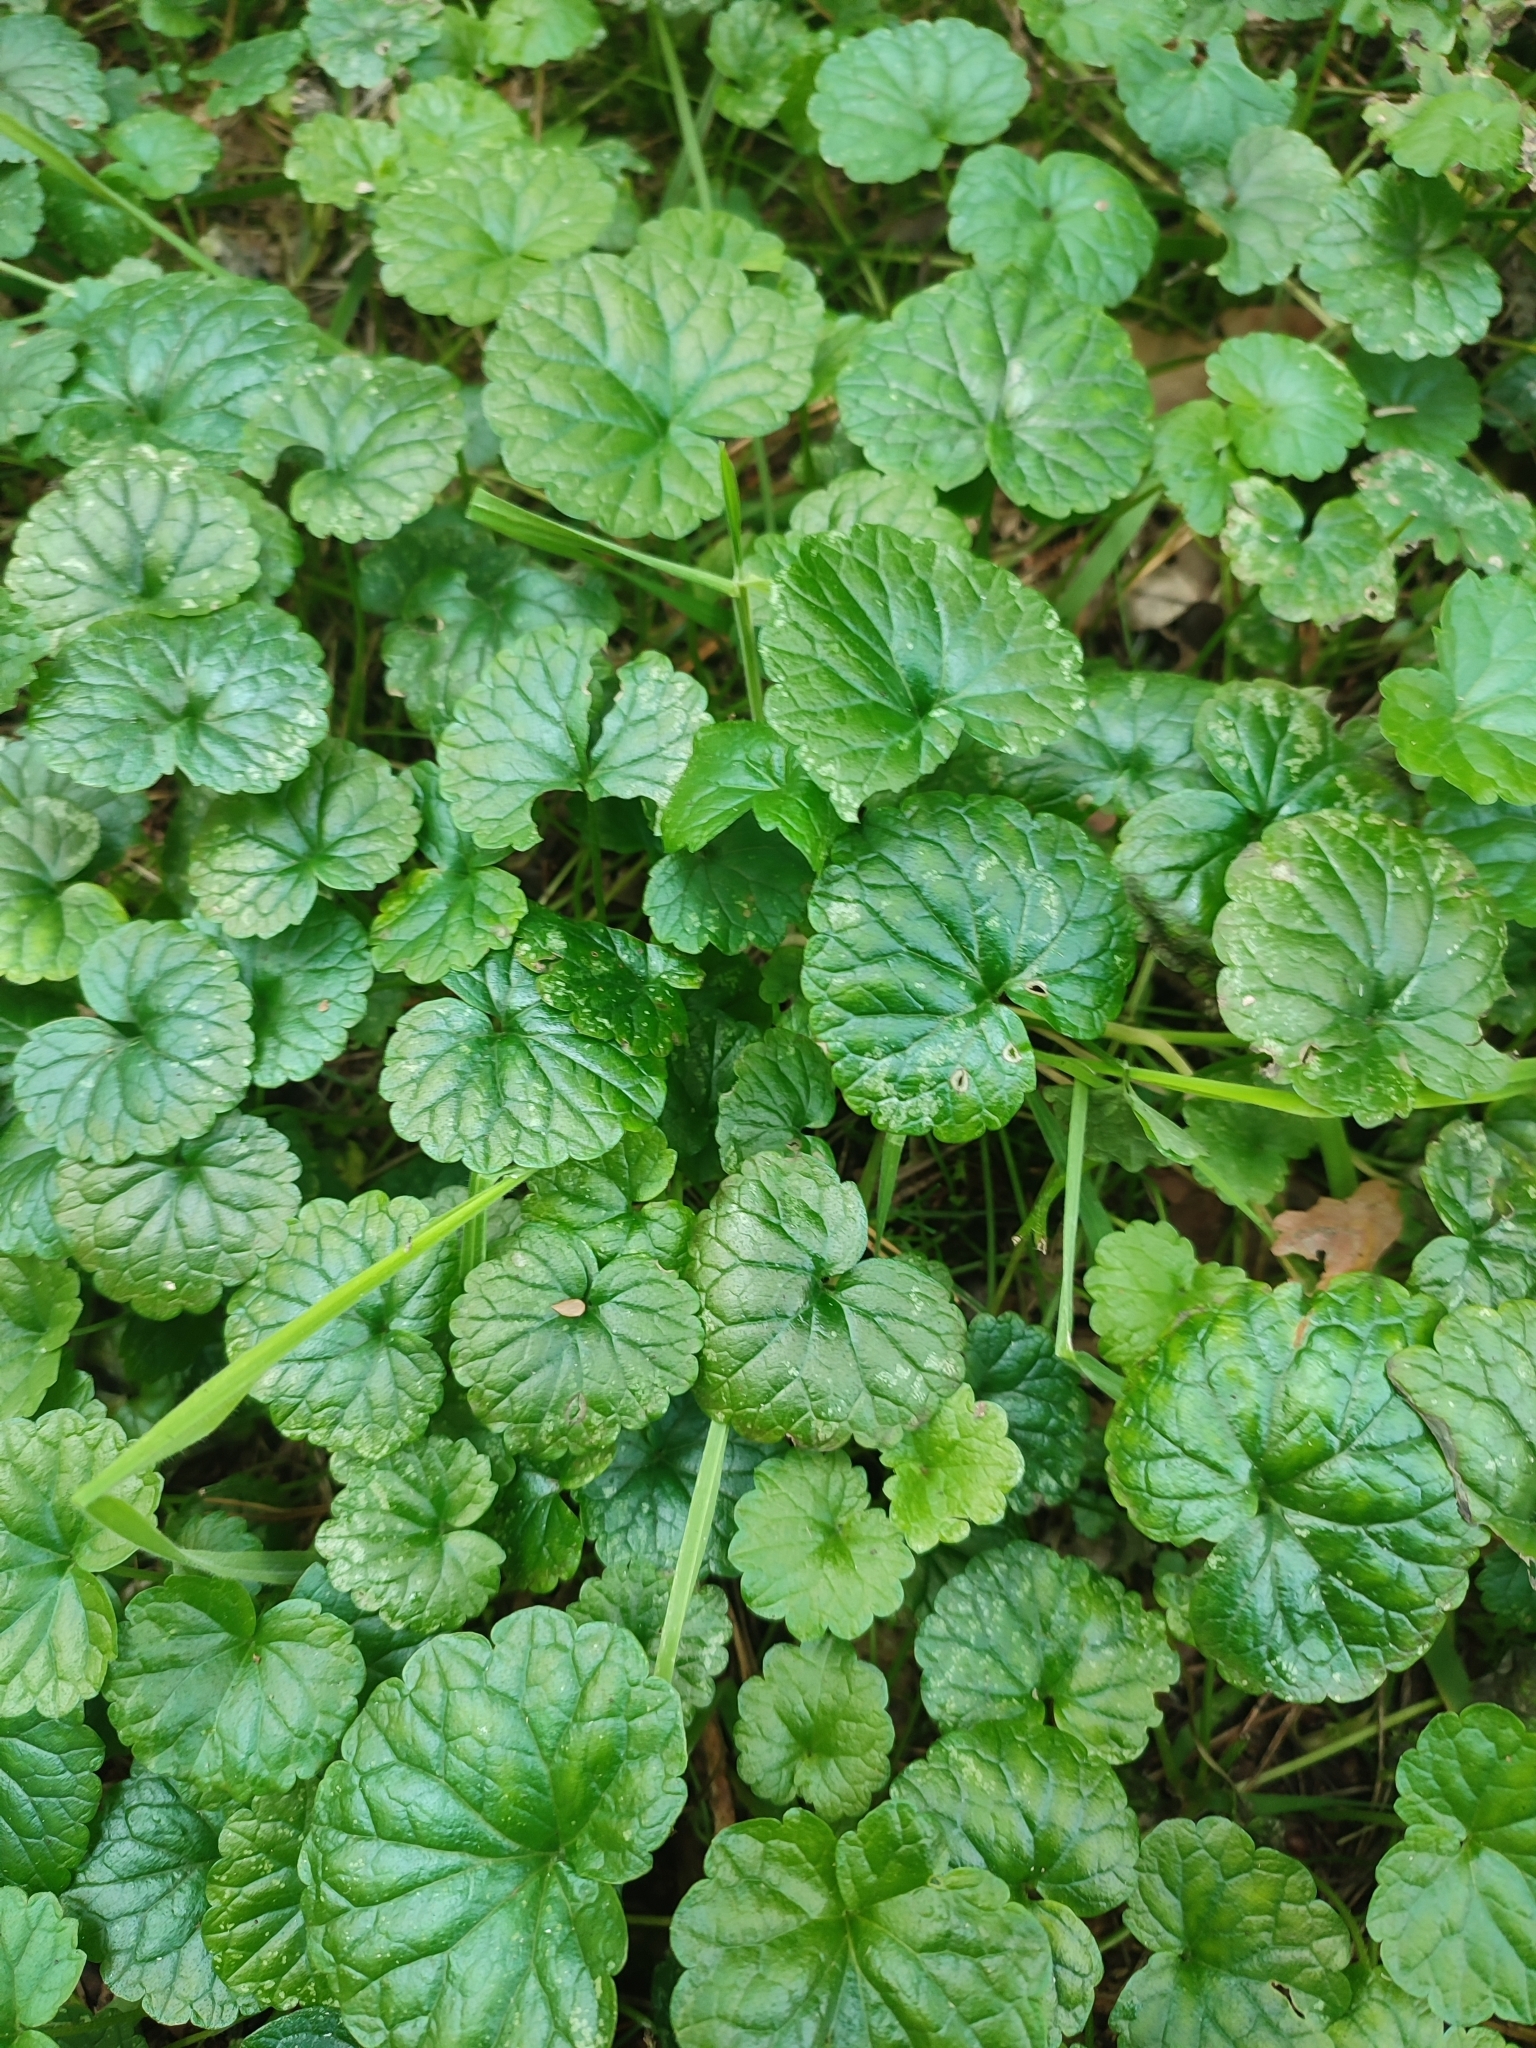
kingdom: Plantae
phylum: Tracheophyta
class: Magnoliopsida
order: Lamiales
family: Lamiaceae
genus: Glechoma
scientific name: Glechoma hederacea
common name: Ground ivy
